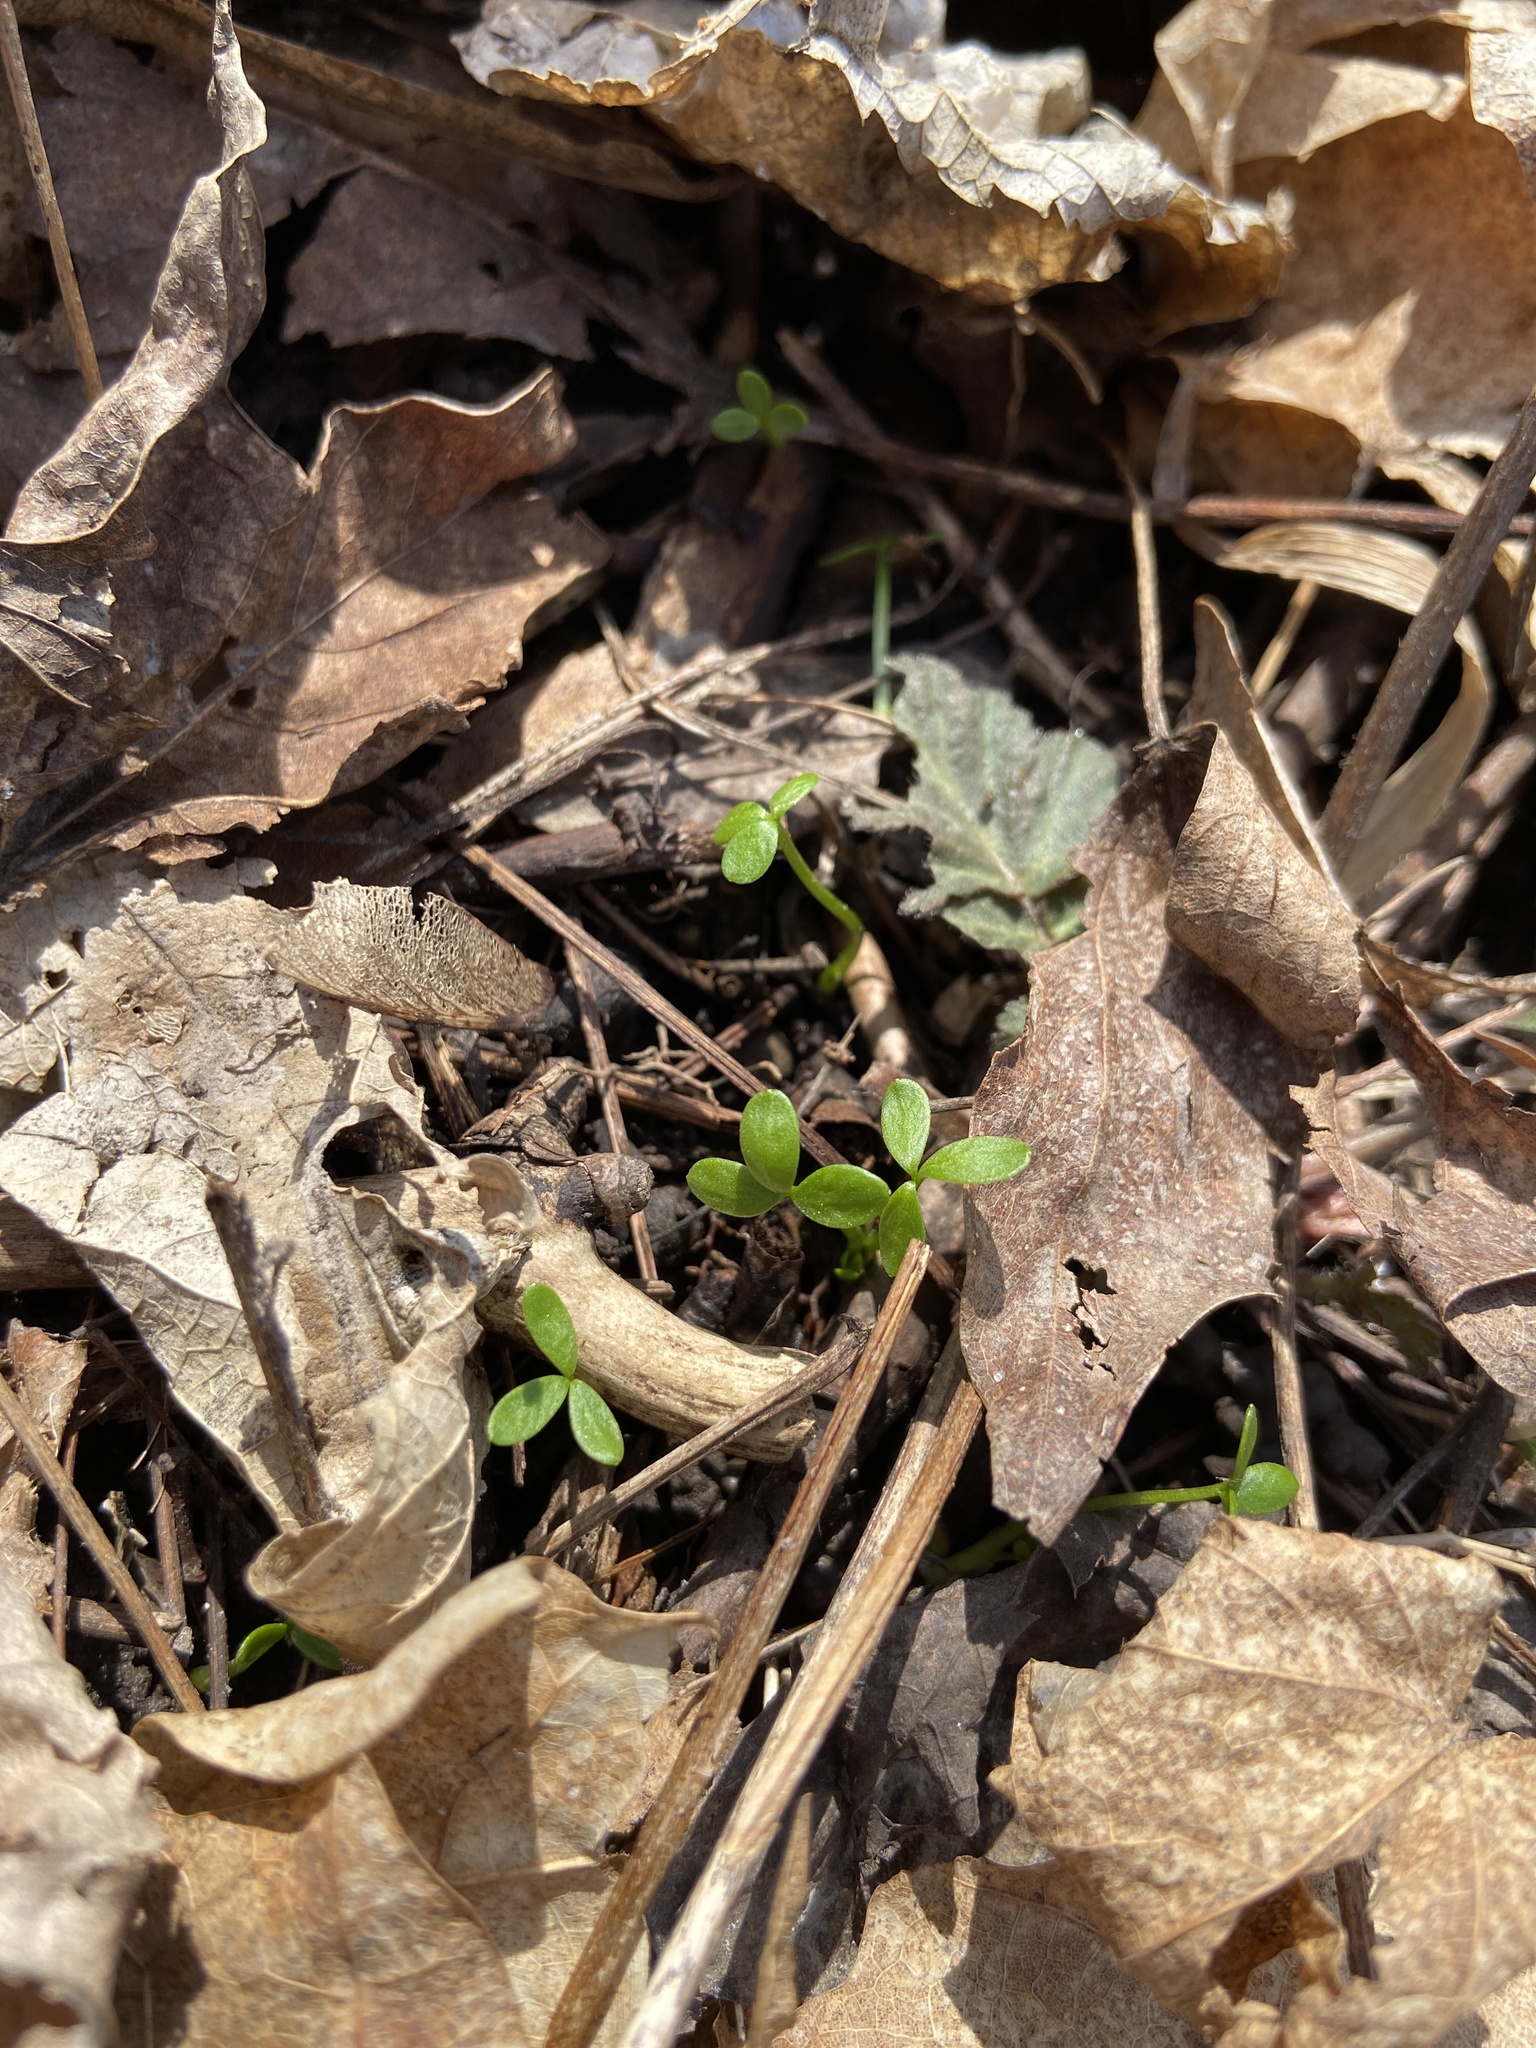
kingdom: Plantae
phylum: Tracheophyta
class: Magnoliopsida
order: Brassicales
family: Limnanthaceae
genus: Floerkea
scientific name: Floerkea proserpinacoides
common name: False mermaid
